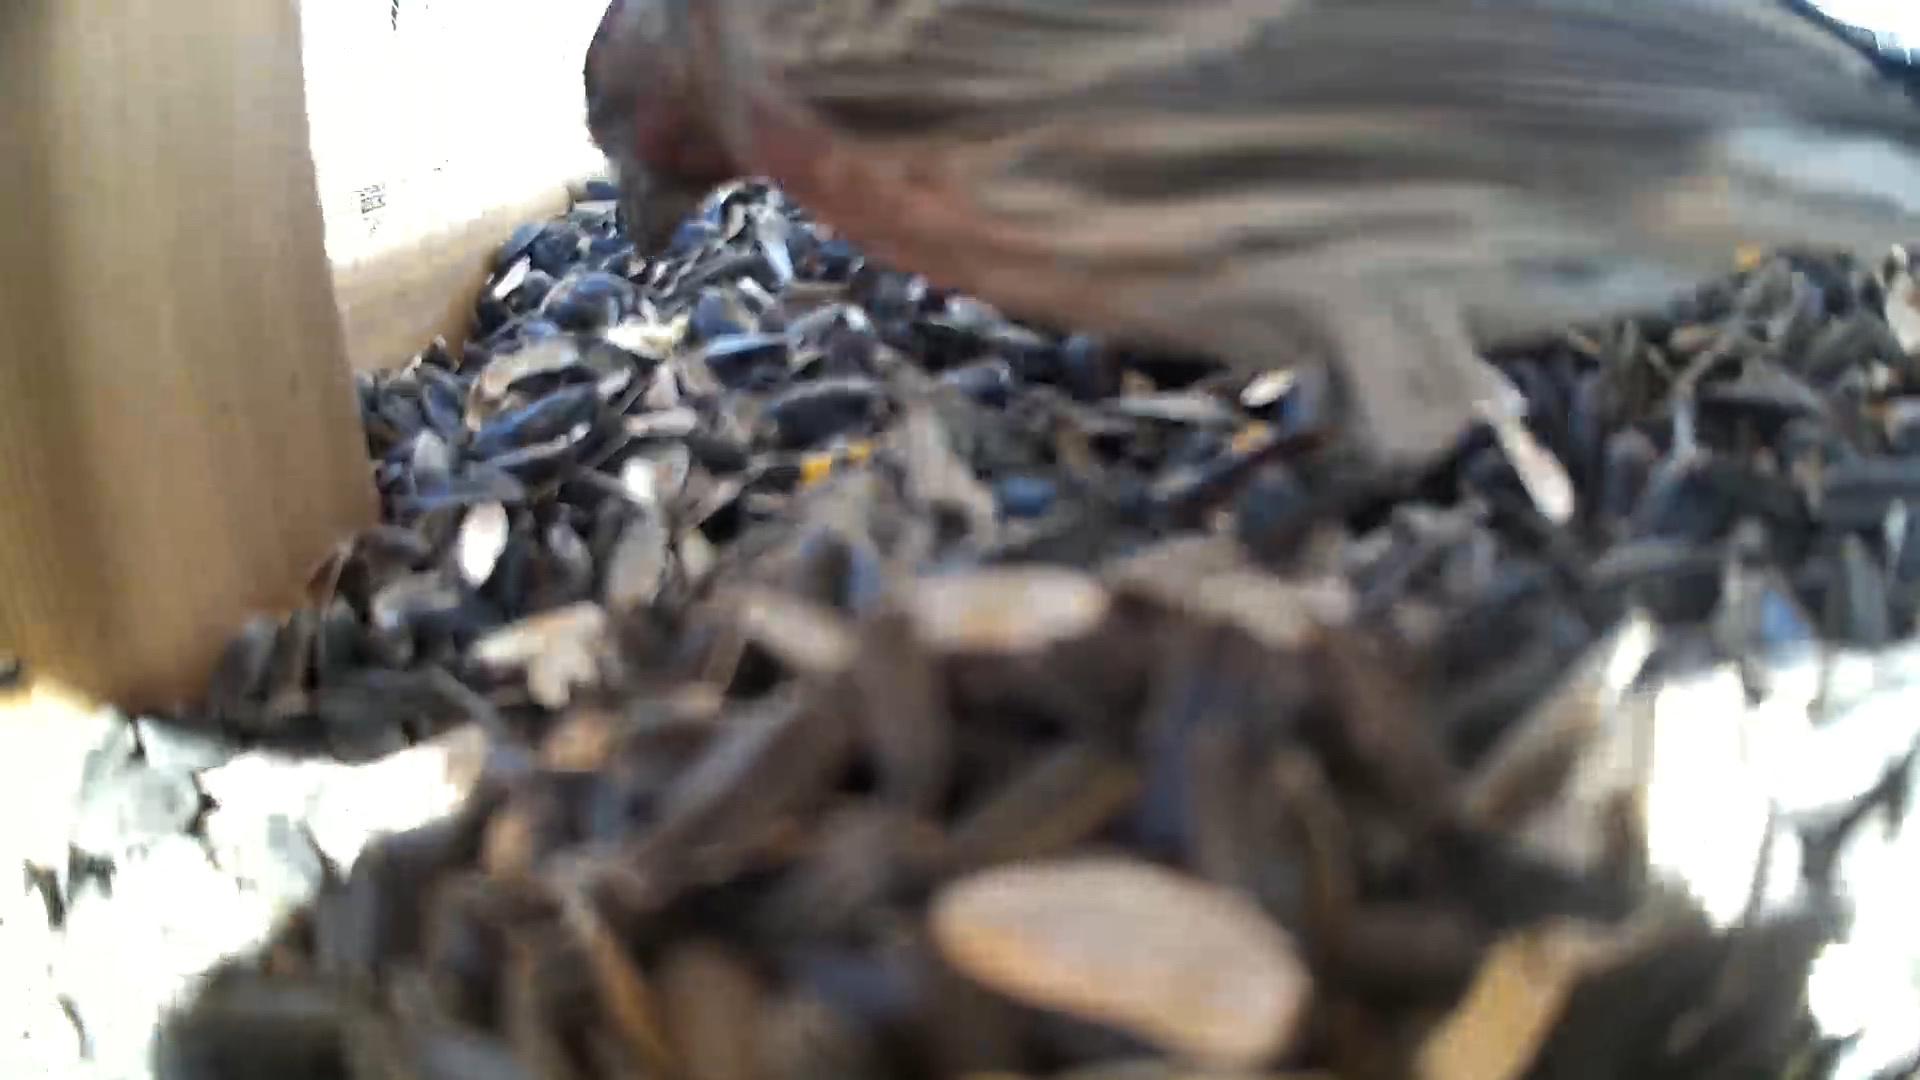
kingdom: Animalia
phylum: Chordata
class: Aves
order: Passeriformes
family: Fringillidae
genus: Haemorhous
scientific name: Haemorhous mexicanus
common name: House finch
